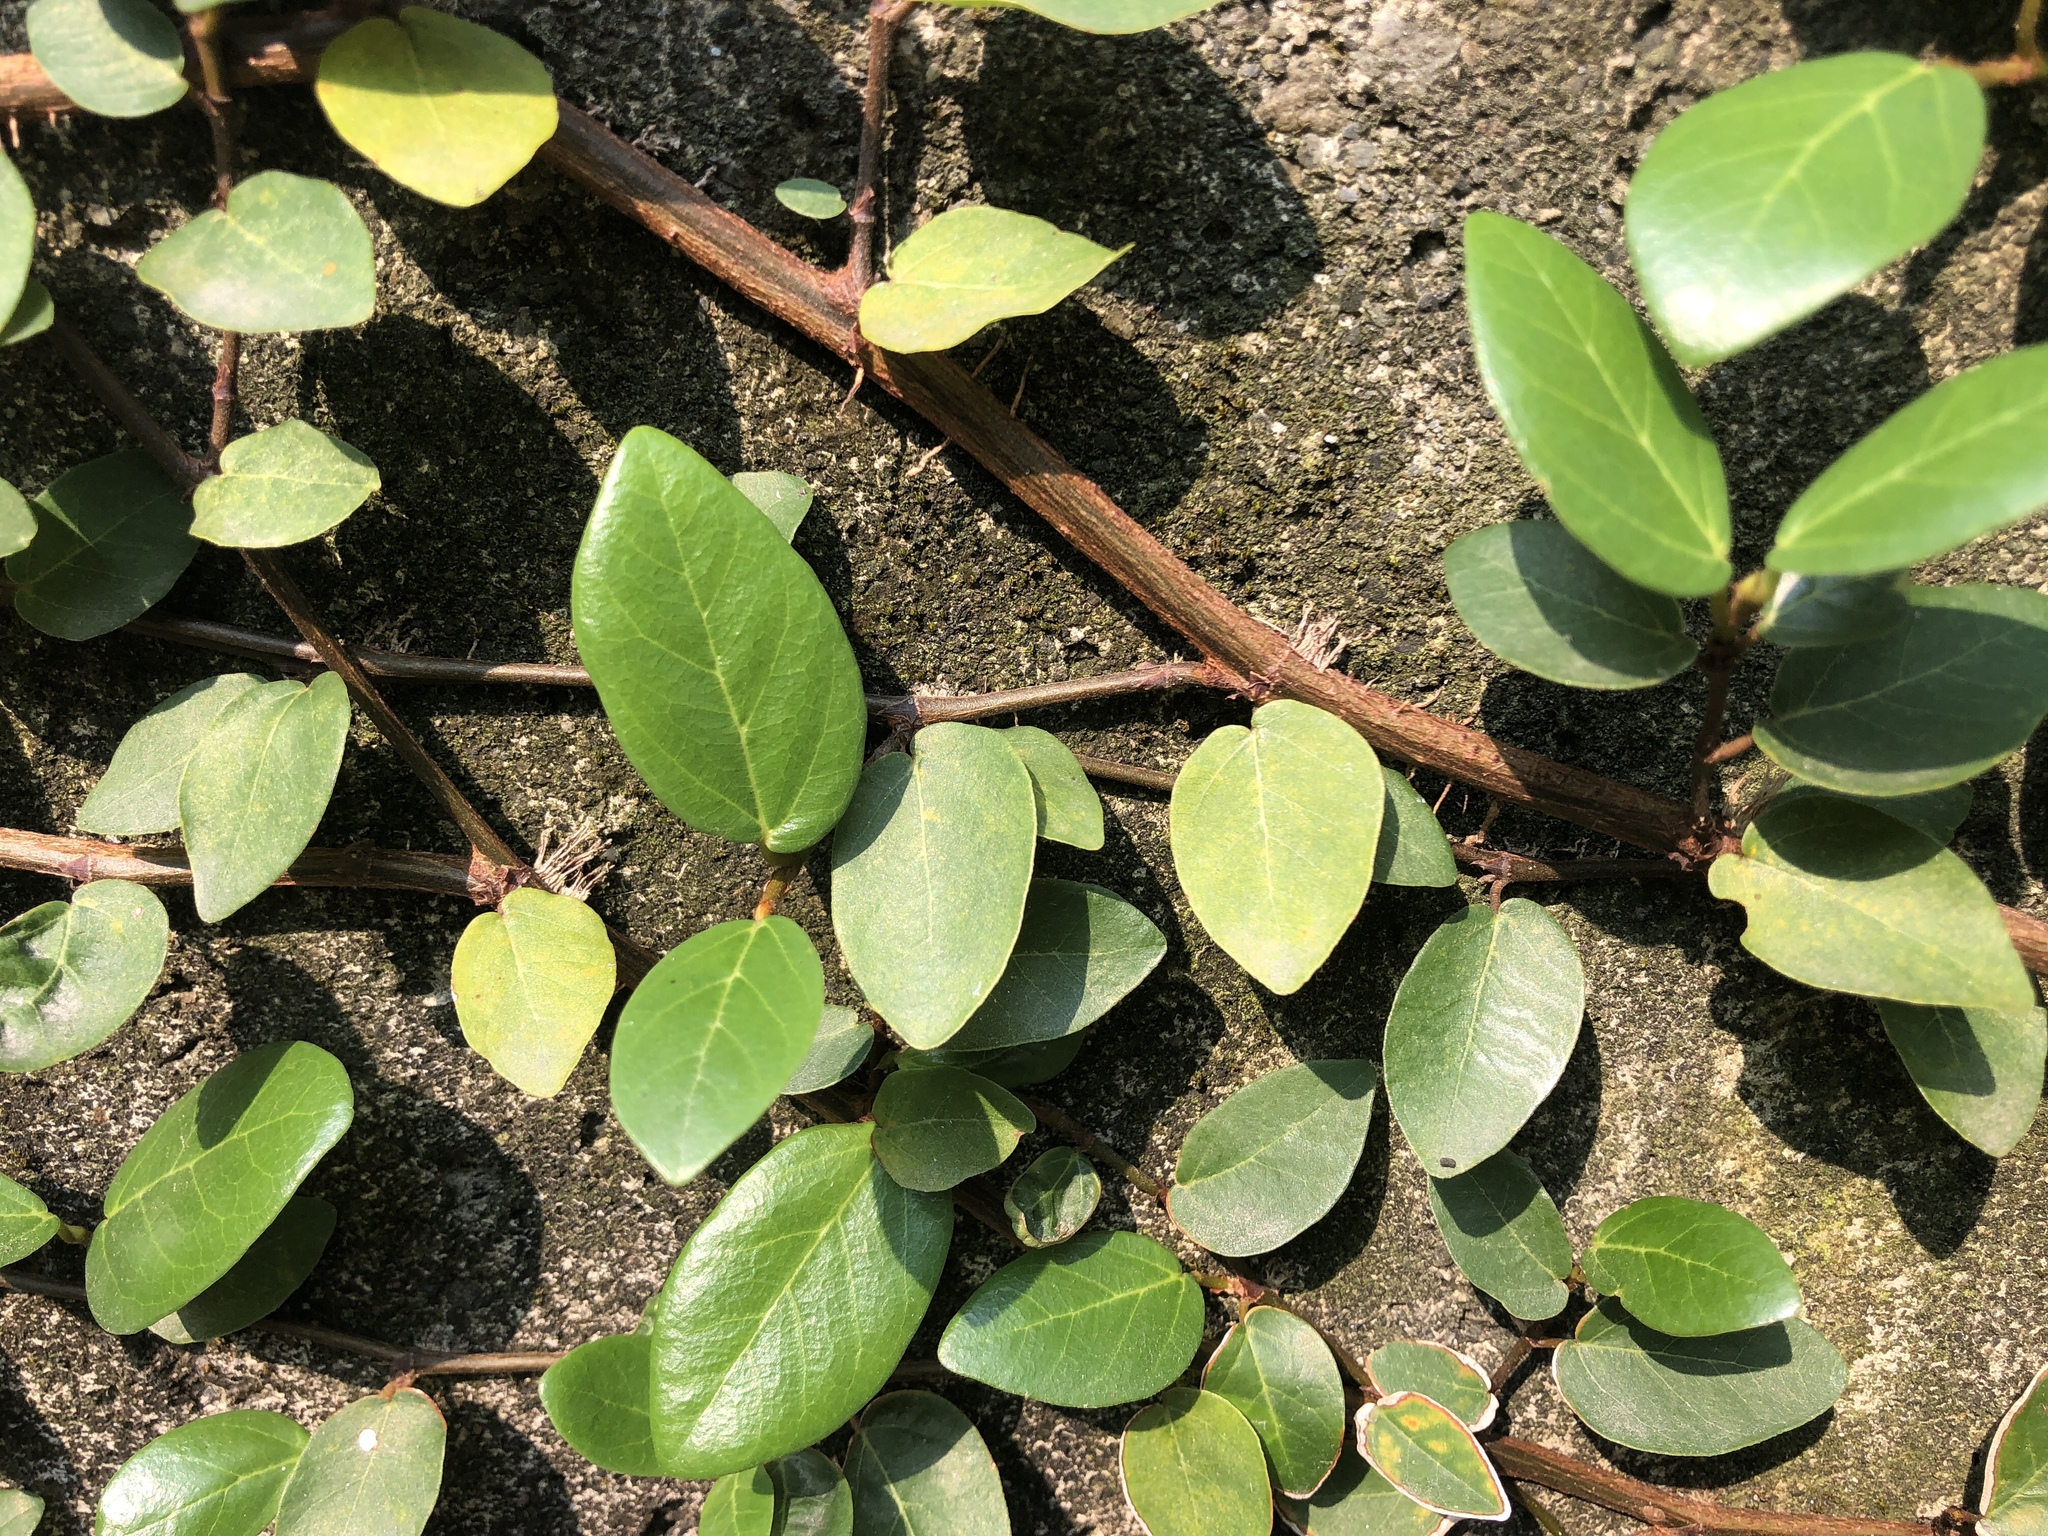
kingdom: Plantae
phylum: Tracheophyta
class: Magnoliopsida
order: Rosales
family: Moraceae
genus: Ficus
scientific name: Ficus pumila
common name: Climbingfig
